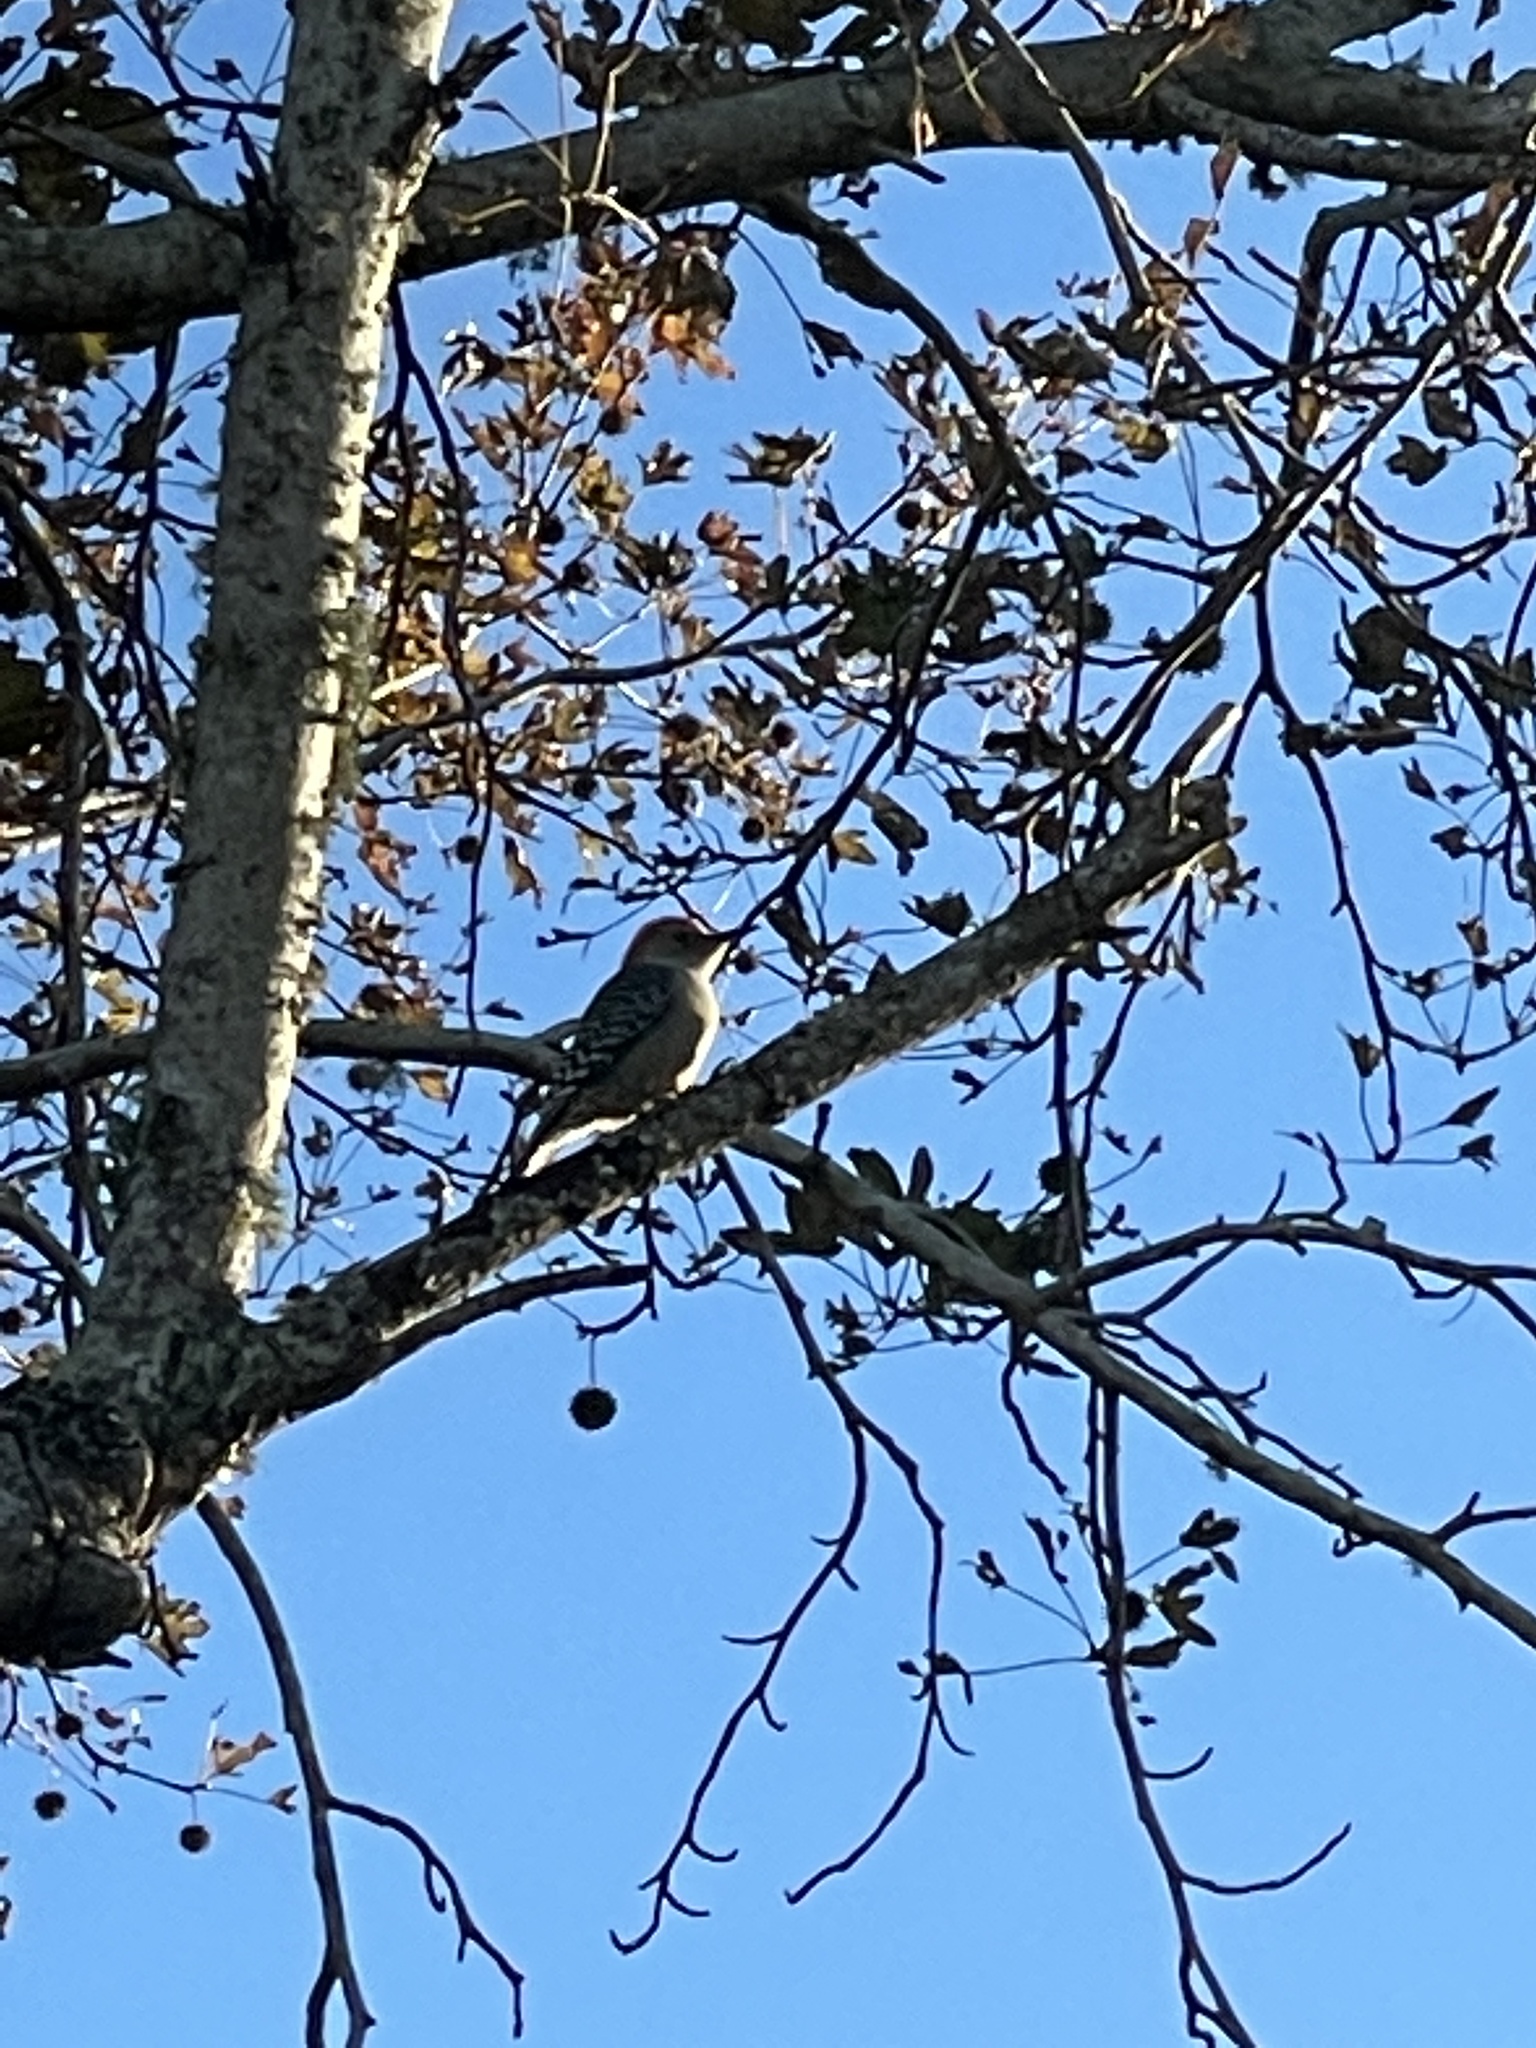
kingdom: Animalia
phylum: Chordata
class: Aves
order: Piciformes
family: Picidae
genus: Melanerpes
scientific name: Melanerpes carolinus
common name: Red-bellied woodpecker
